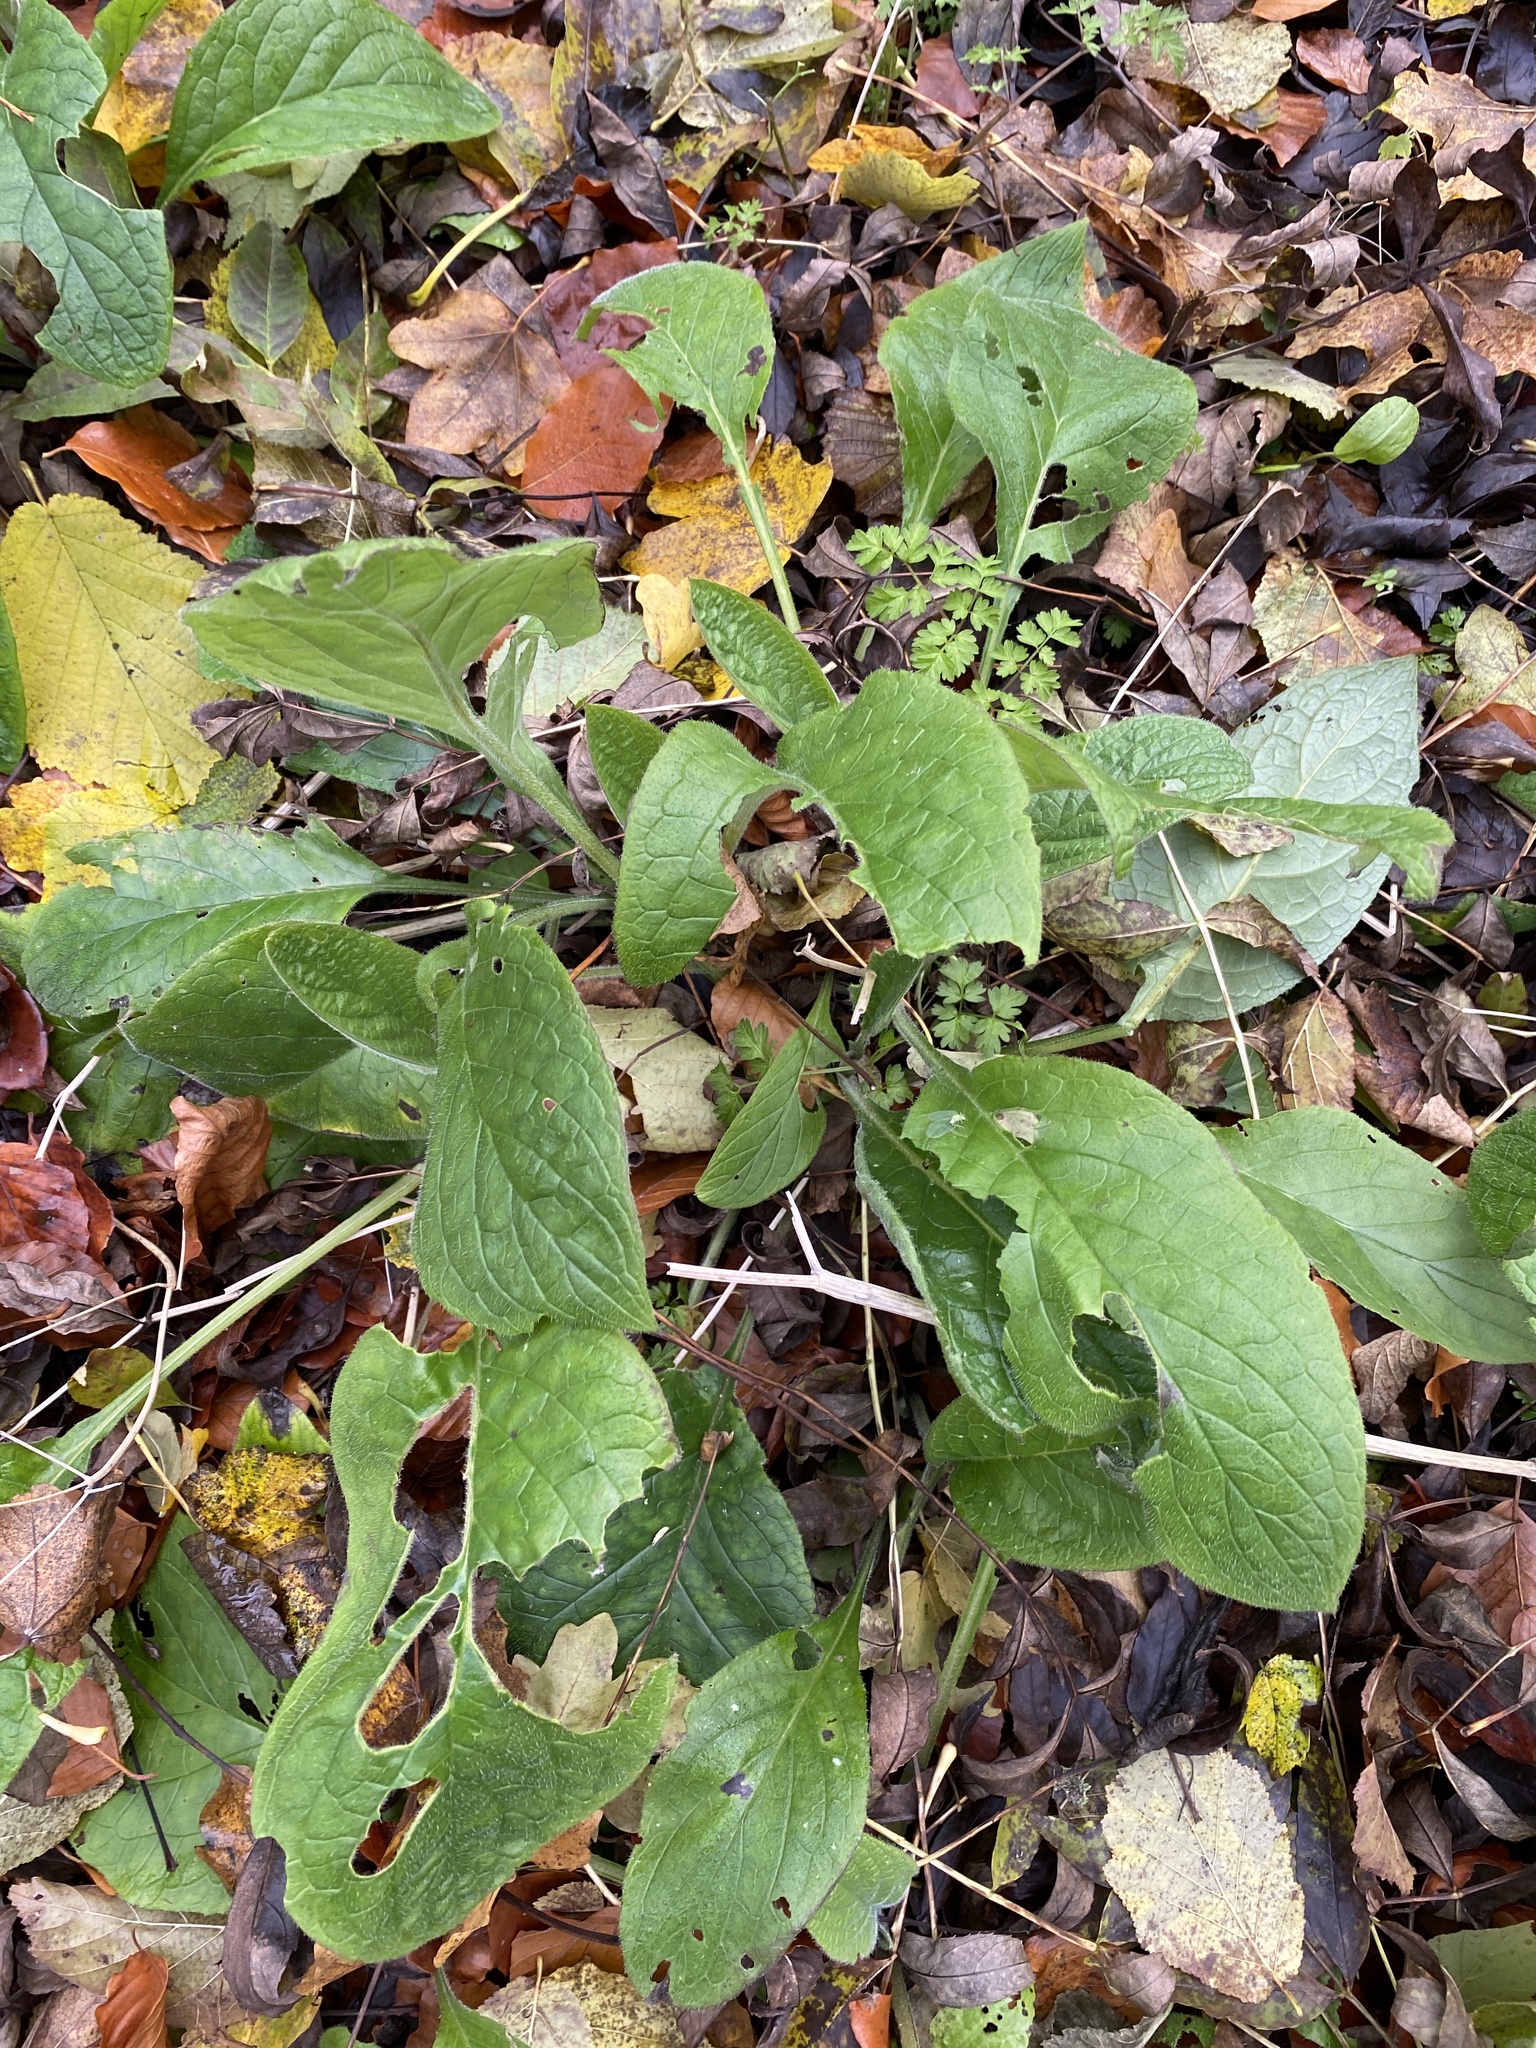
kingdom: Plantae
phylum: Tracheophyta
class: Magnoliopsida
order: Boraginales
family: Boraginaceae
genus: Pentaglottis
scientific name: Pentaglottis sempervirens
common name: Green alkanet
